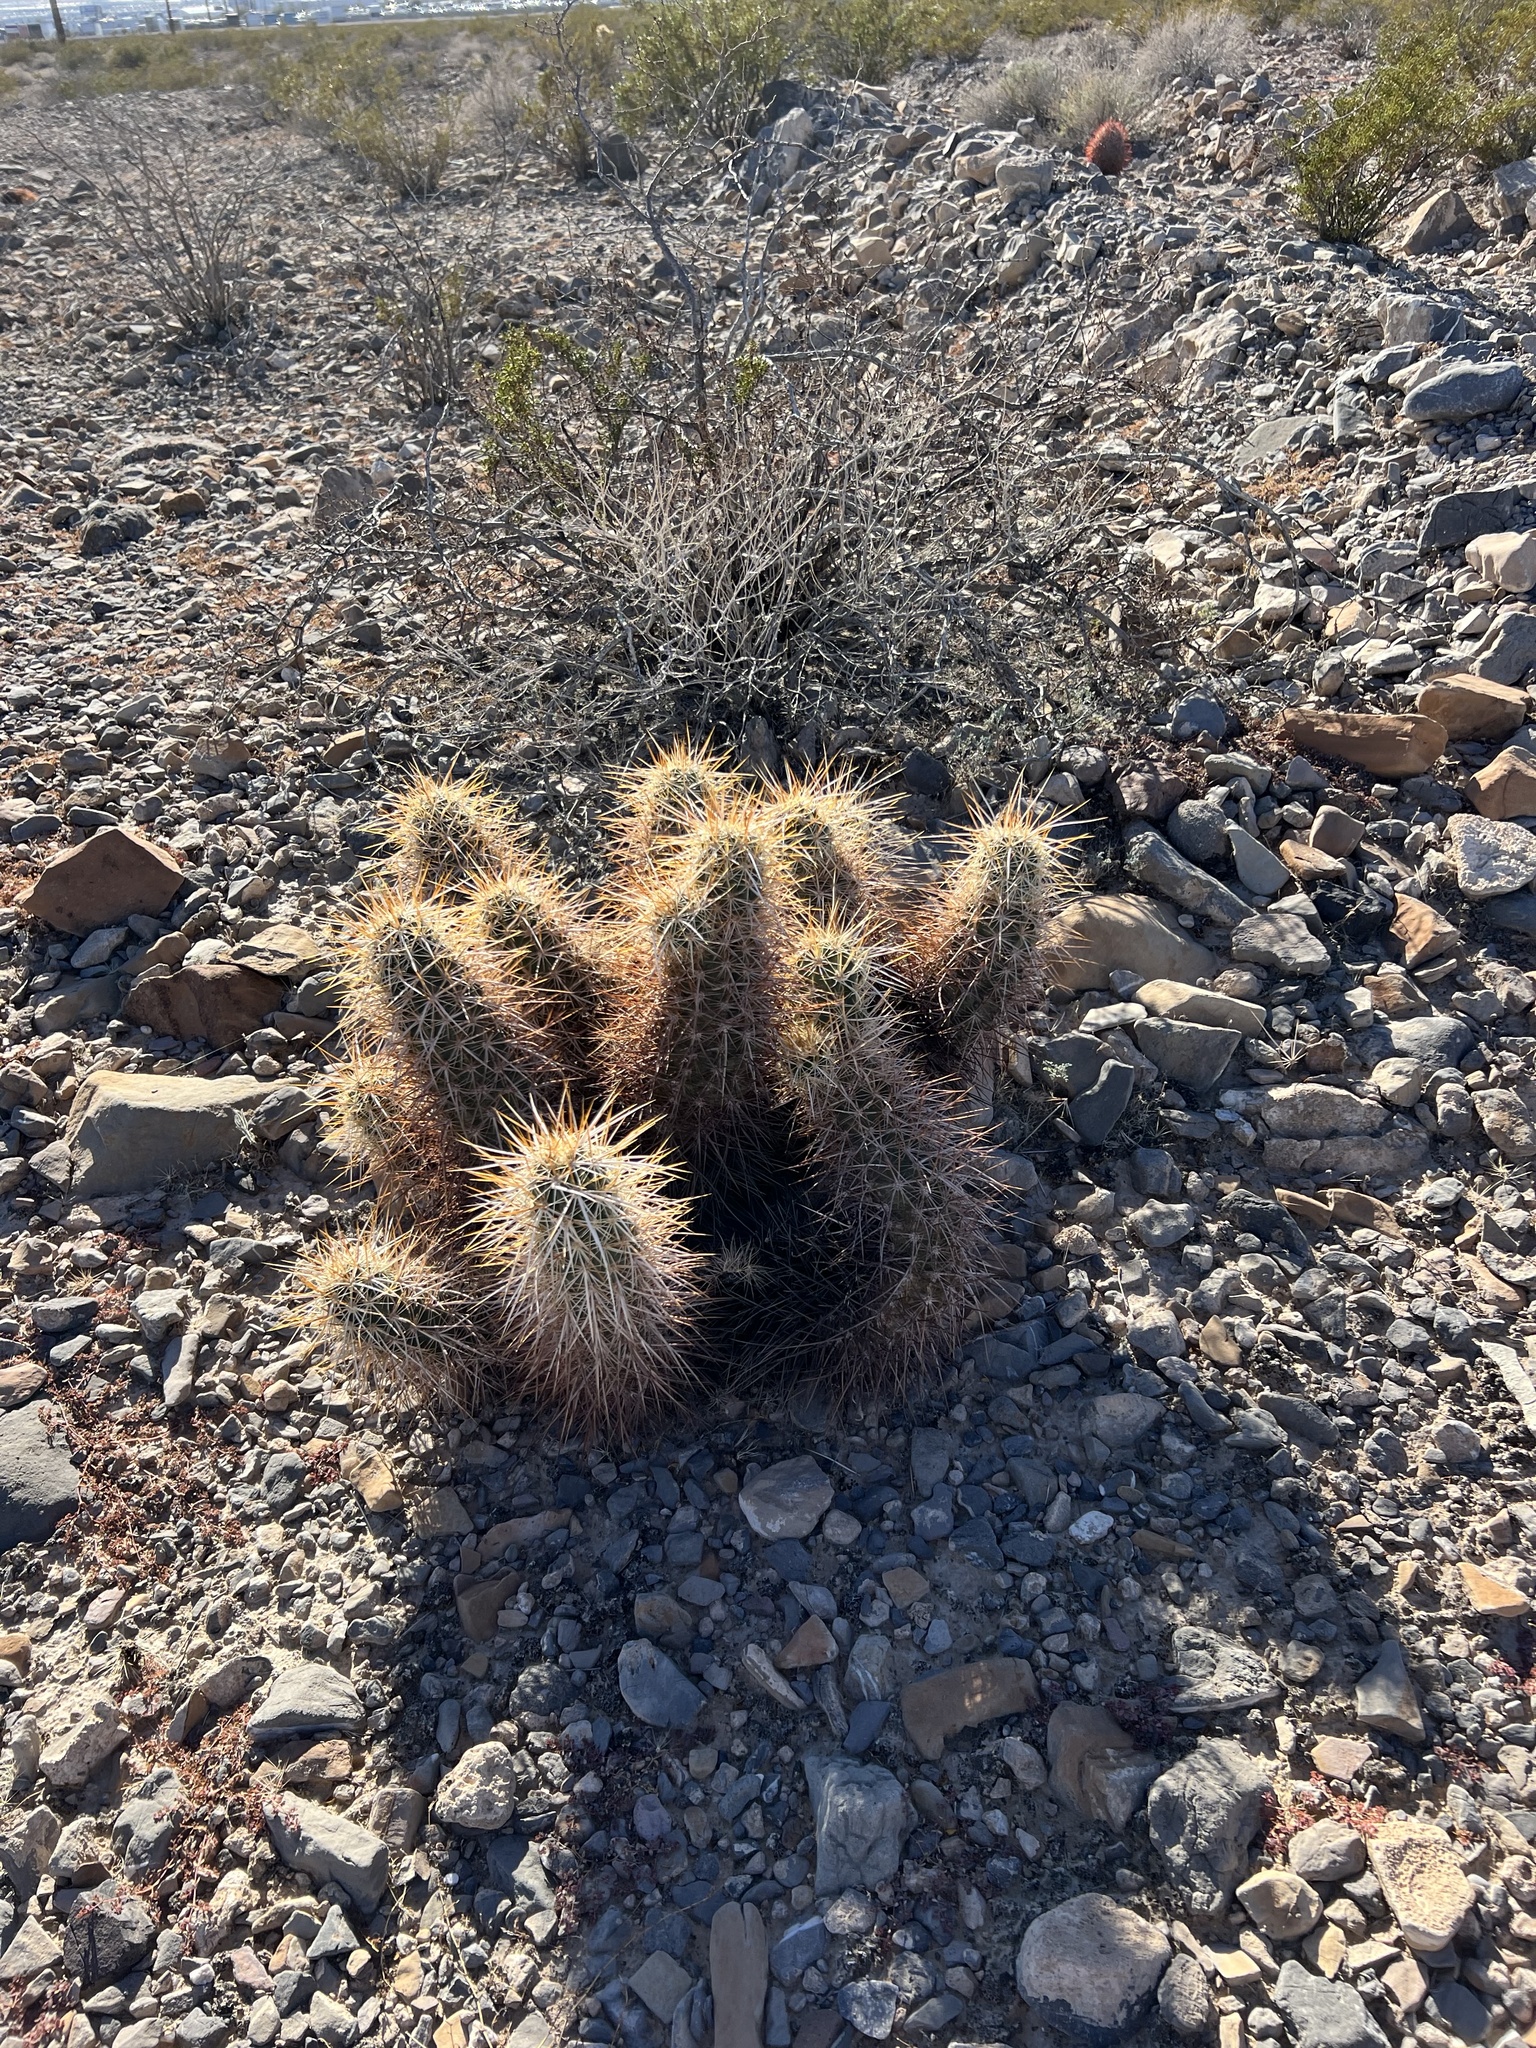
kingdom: Plantae
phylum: Tracheophyta
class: Magnoliopsida
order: Caryophyllales
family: Cactaceae
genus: Echinocereus
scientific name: Echinocereus engelmannii
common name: Engelmann's hedgehog cactus
